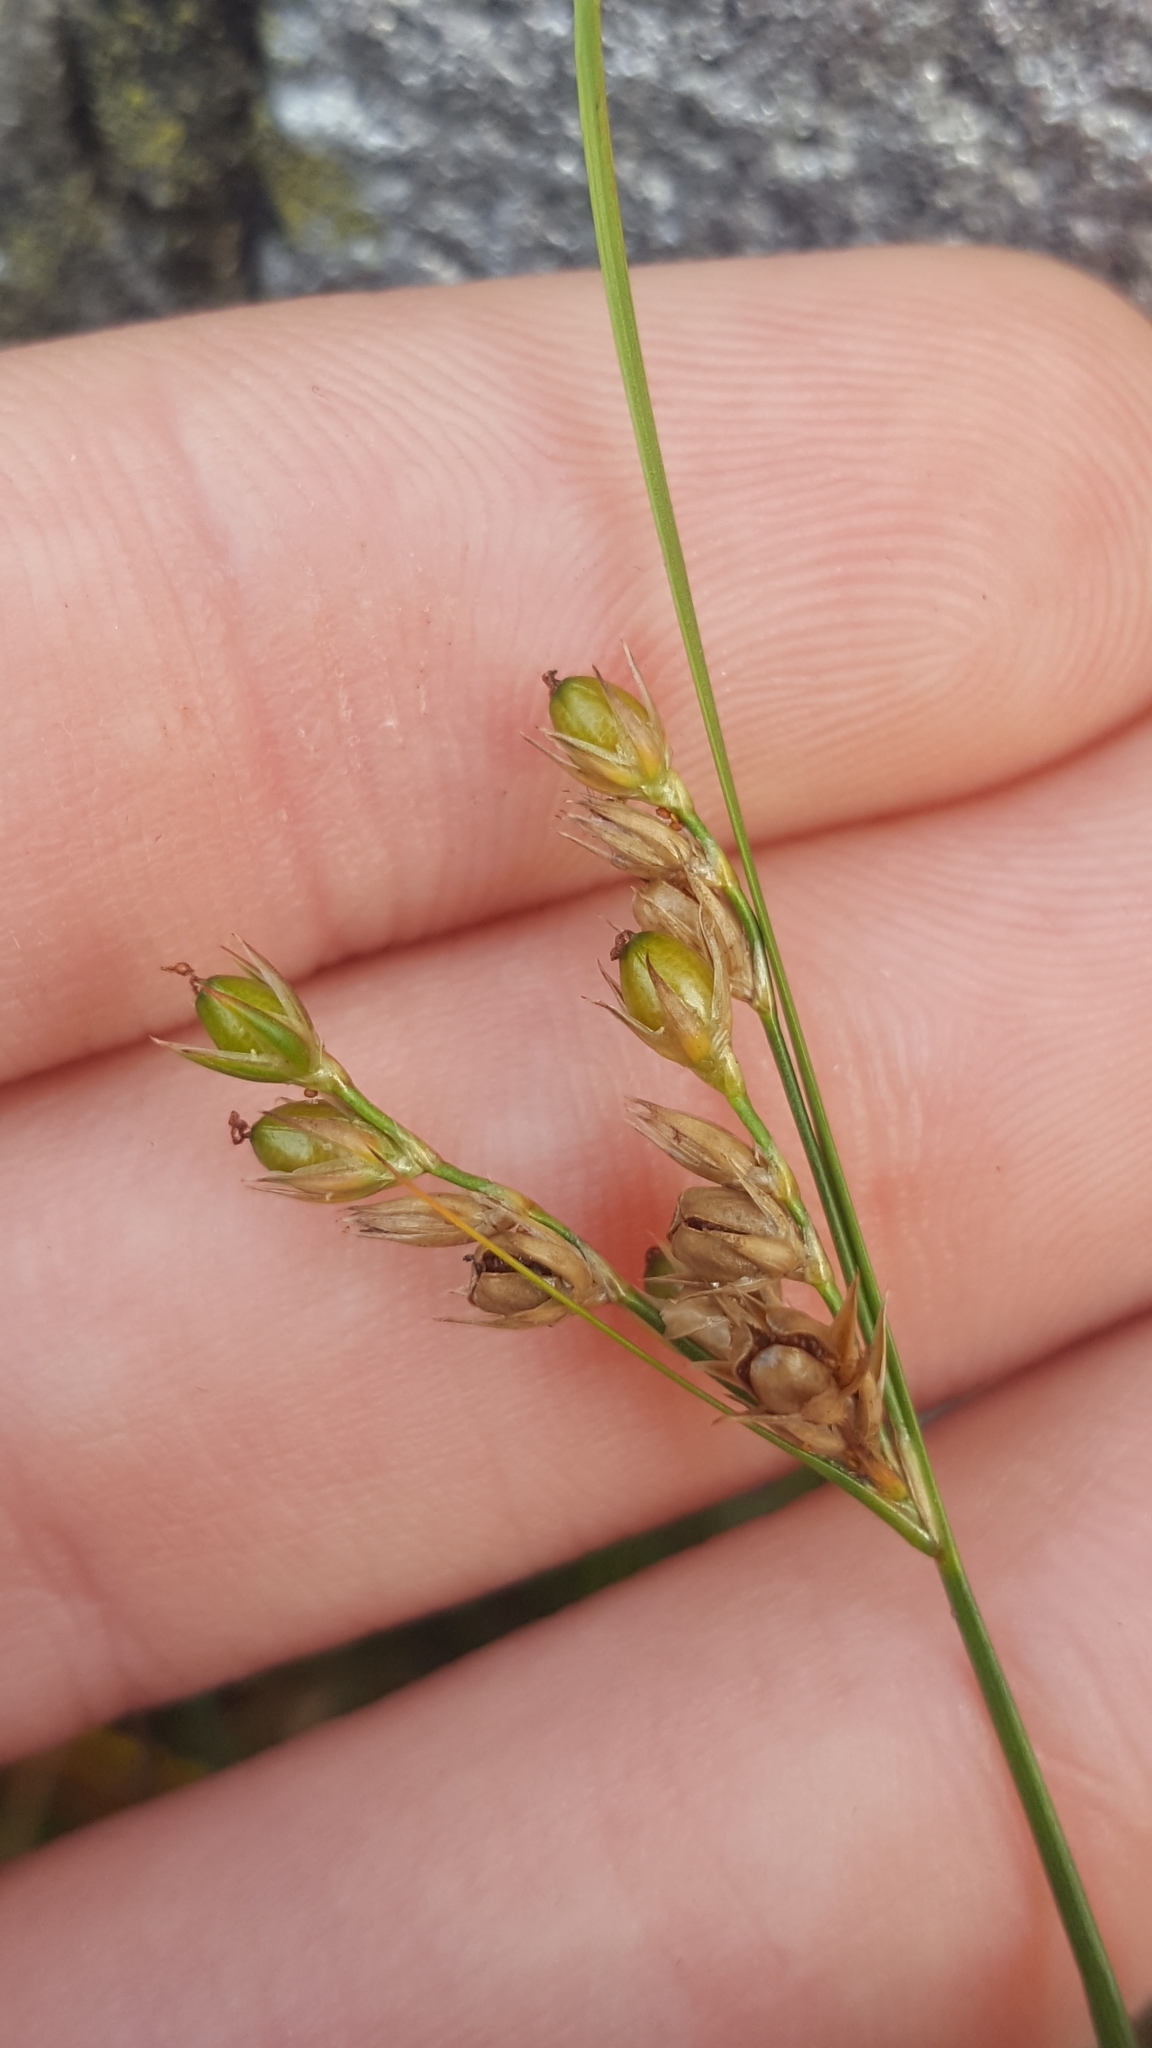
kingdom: Plantae
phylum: Tracheophyta
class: Liliopsida
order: Poales
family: Juncaceae
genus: Juncus
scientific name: Juncus tenuis
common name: Slender rush
